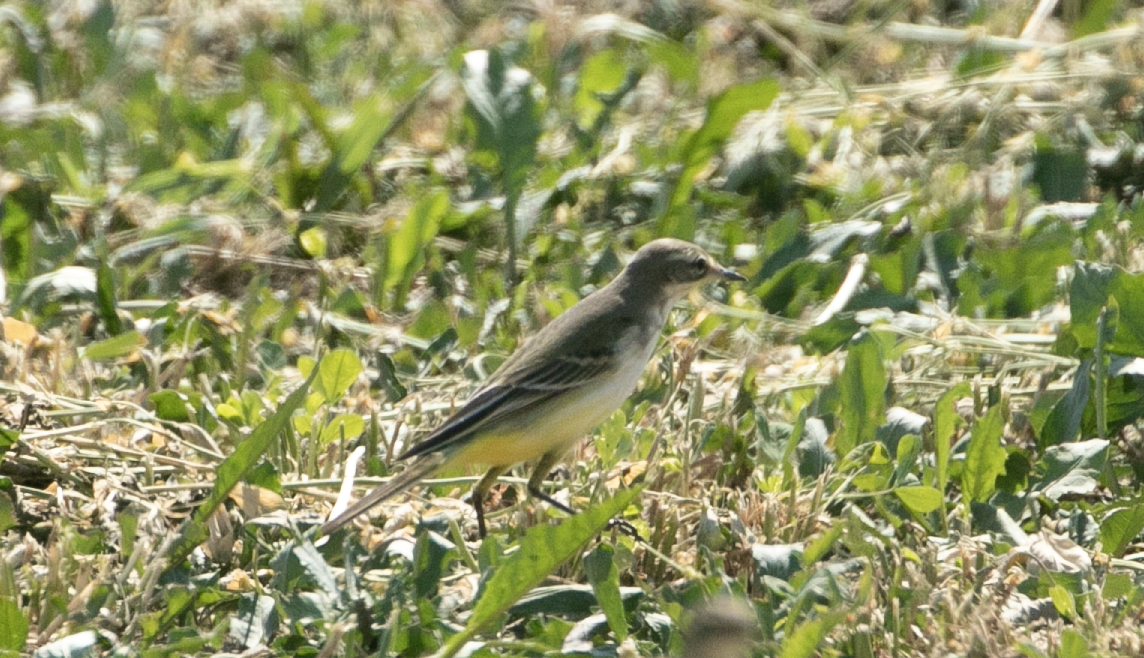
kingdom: Animalia
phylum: Chordata
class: Aves
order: Passeriformes
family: Motacillidae
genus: Motacilla
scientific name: Motacilla flava
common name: Western yellow wagtail
